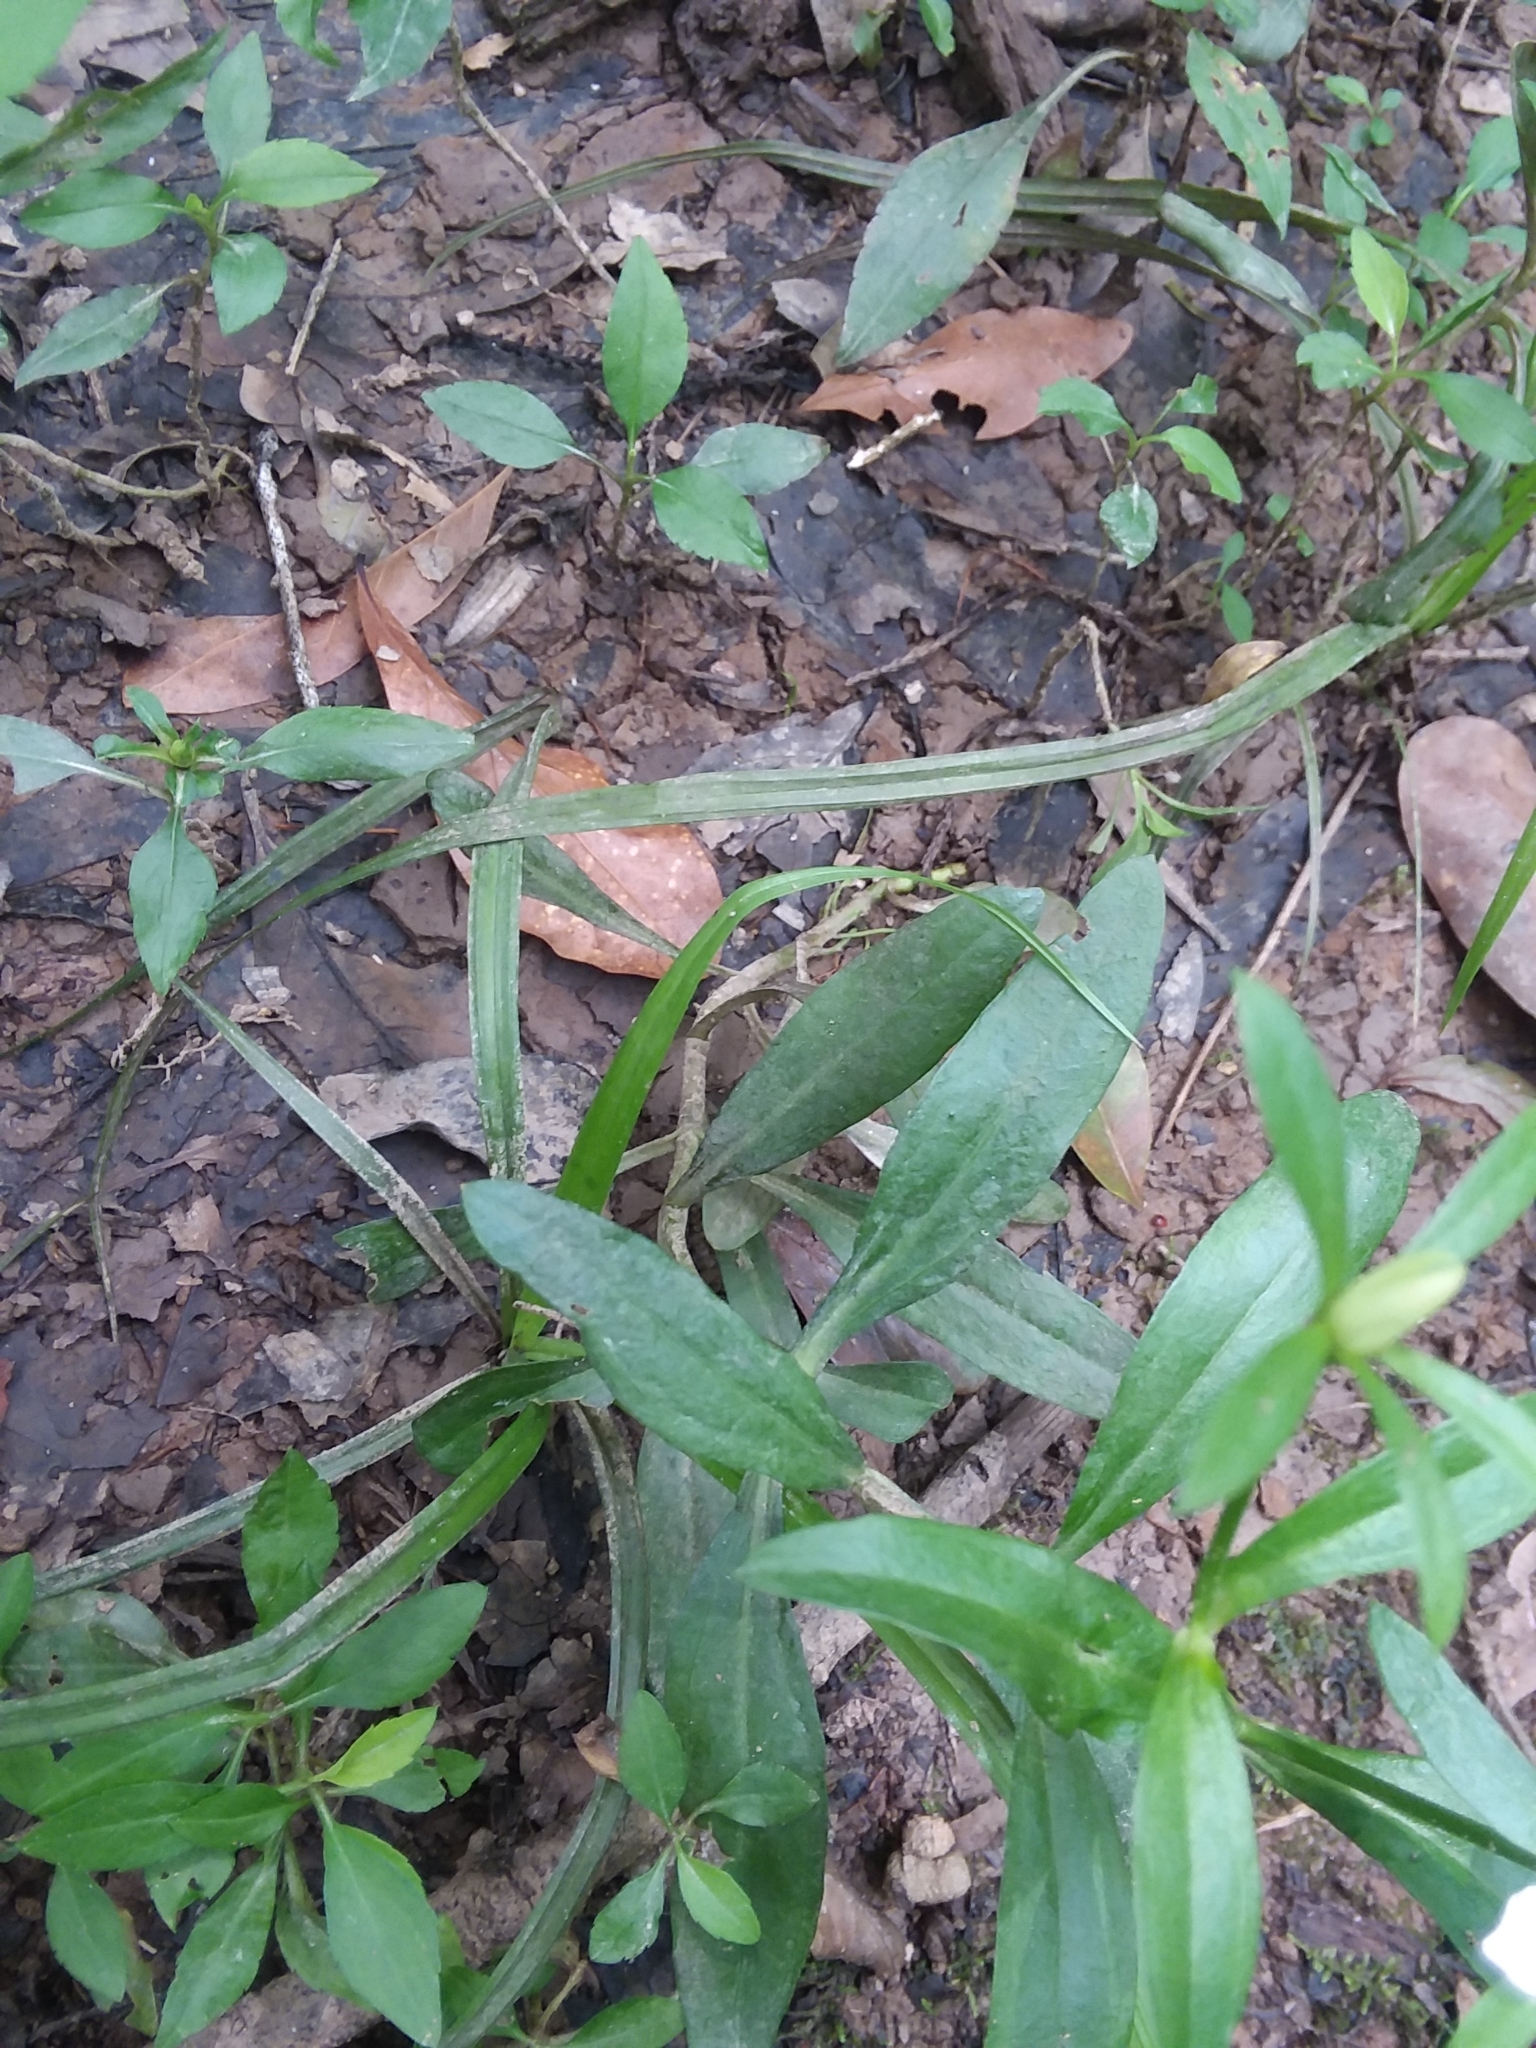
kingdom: Plantae
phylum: Tracheophyta
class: Magnoliopsida
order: Gentianales
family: Gentianaceae
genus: Sabatia
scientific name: Sabatia calycina
